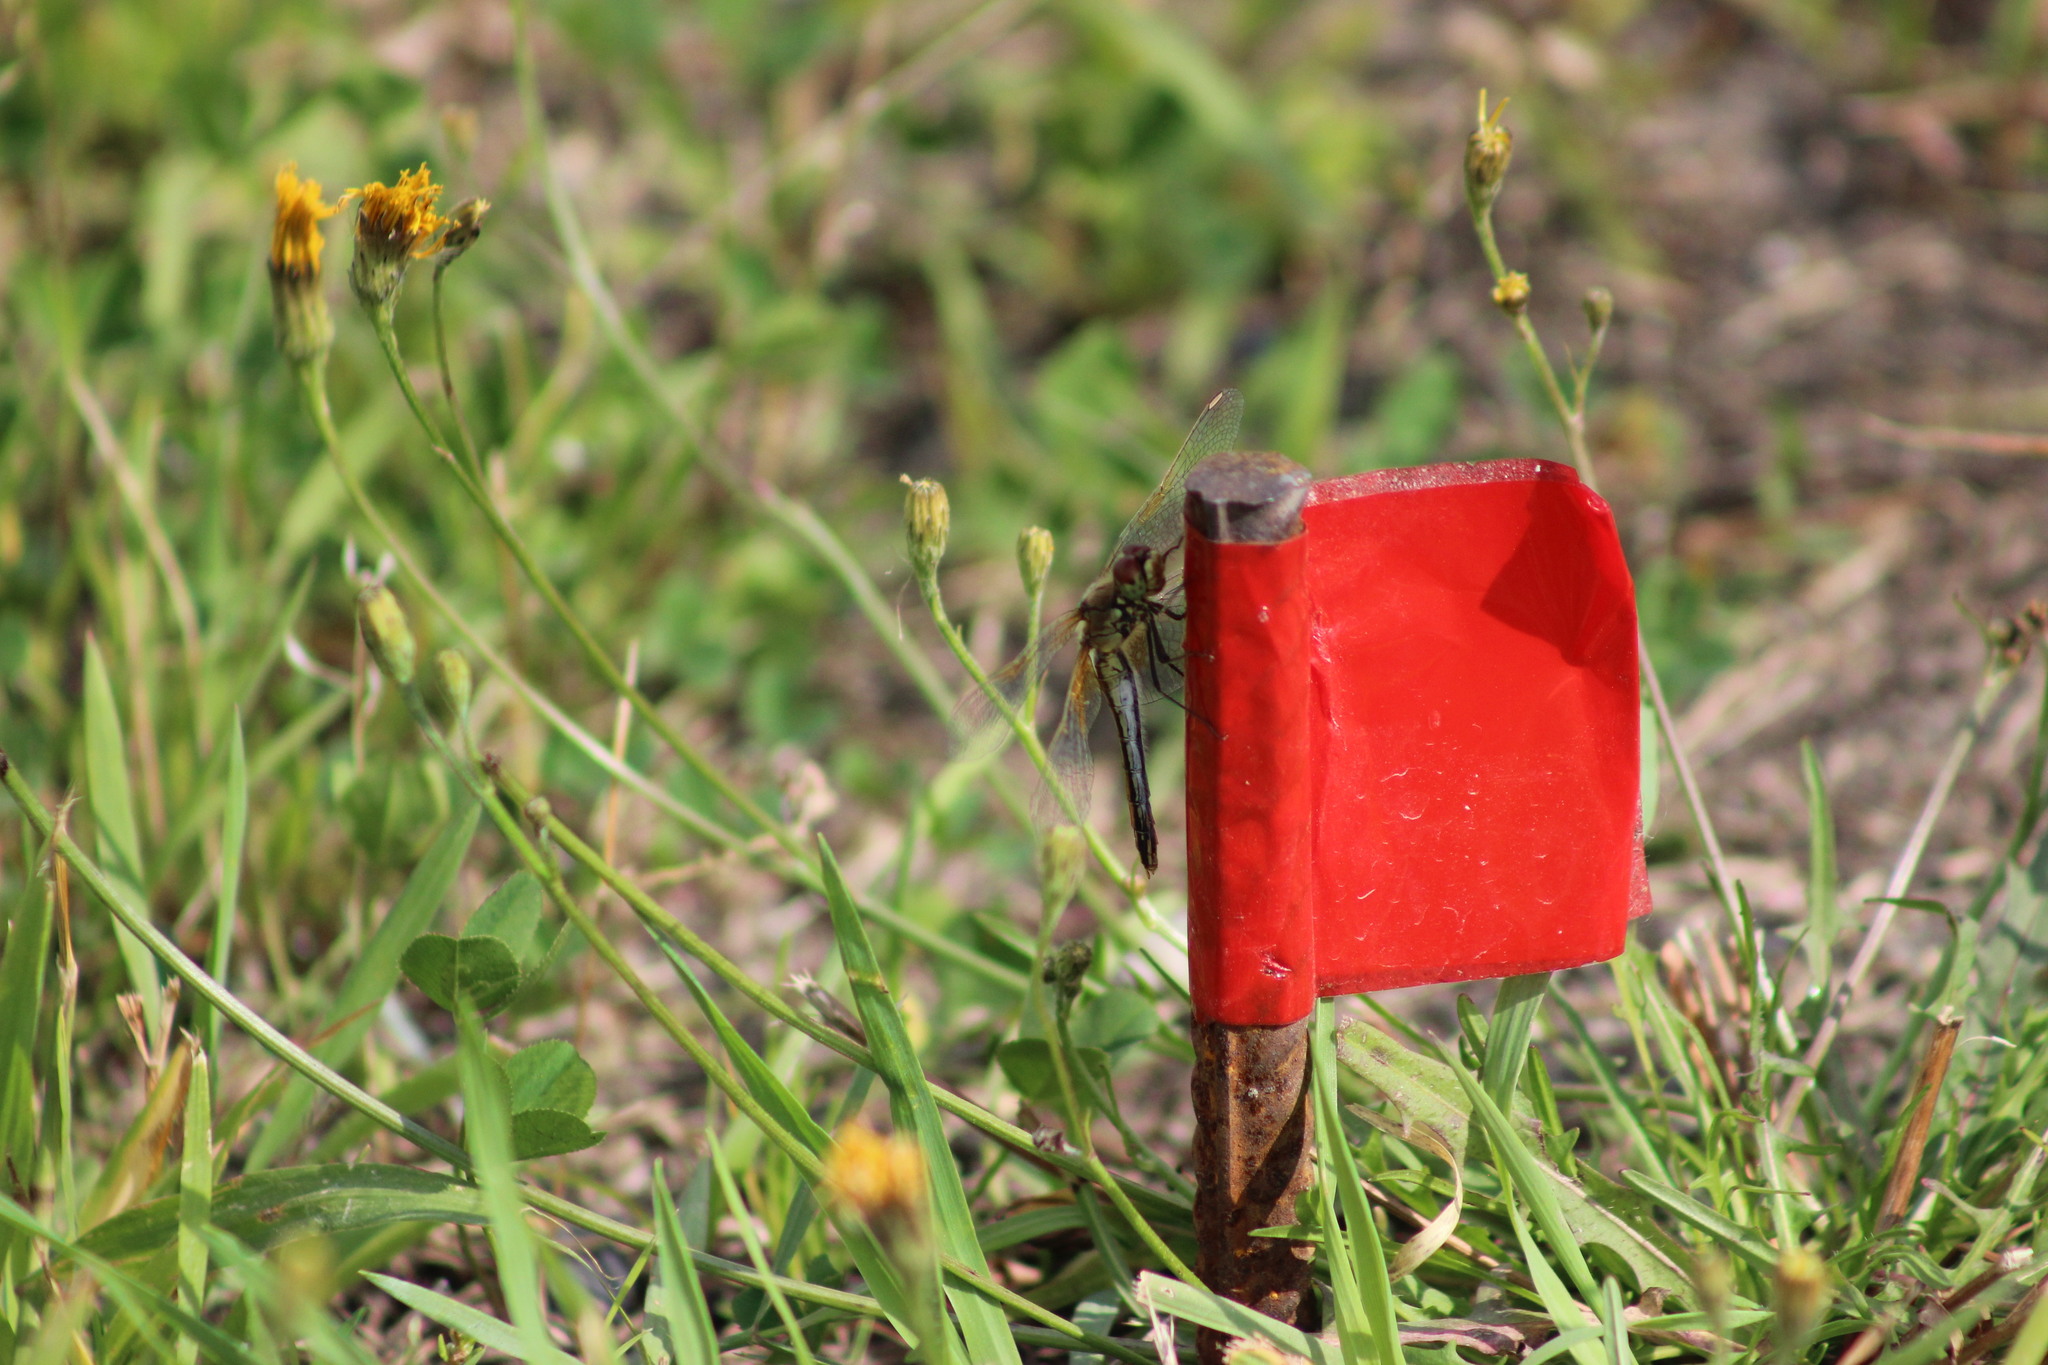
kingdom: Animalia
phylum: Arthropoda
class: Insecta
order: Odonata
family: Libellulidae
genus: Sympetrum
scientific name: Sympetrum flaveolum
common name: Yellow-winged darter
